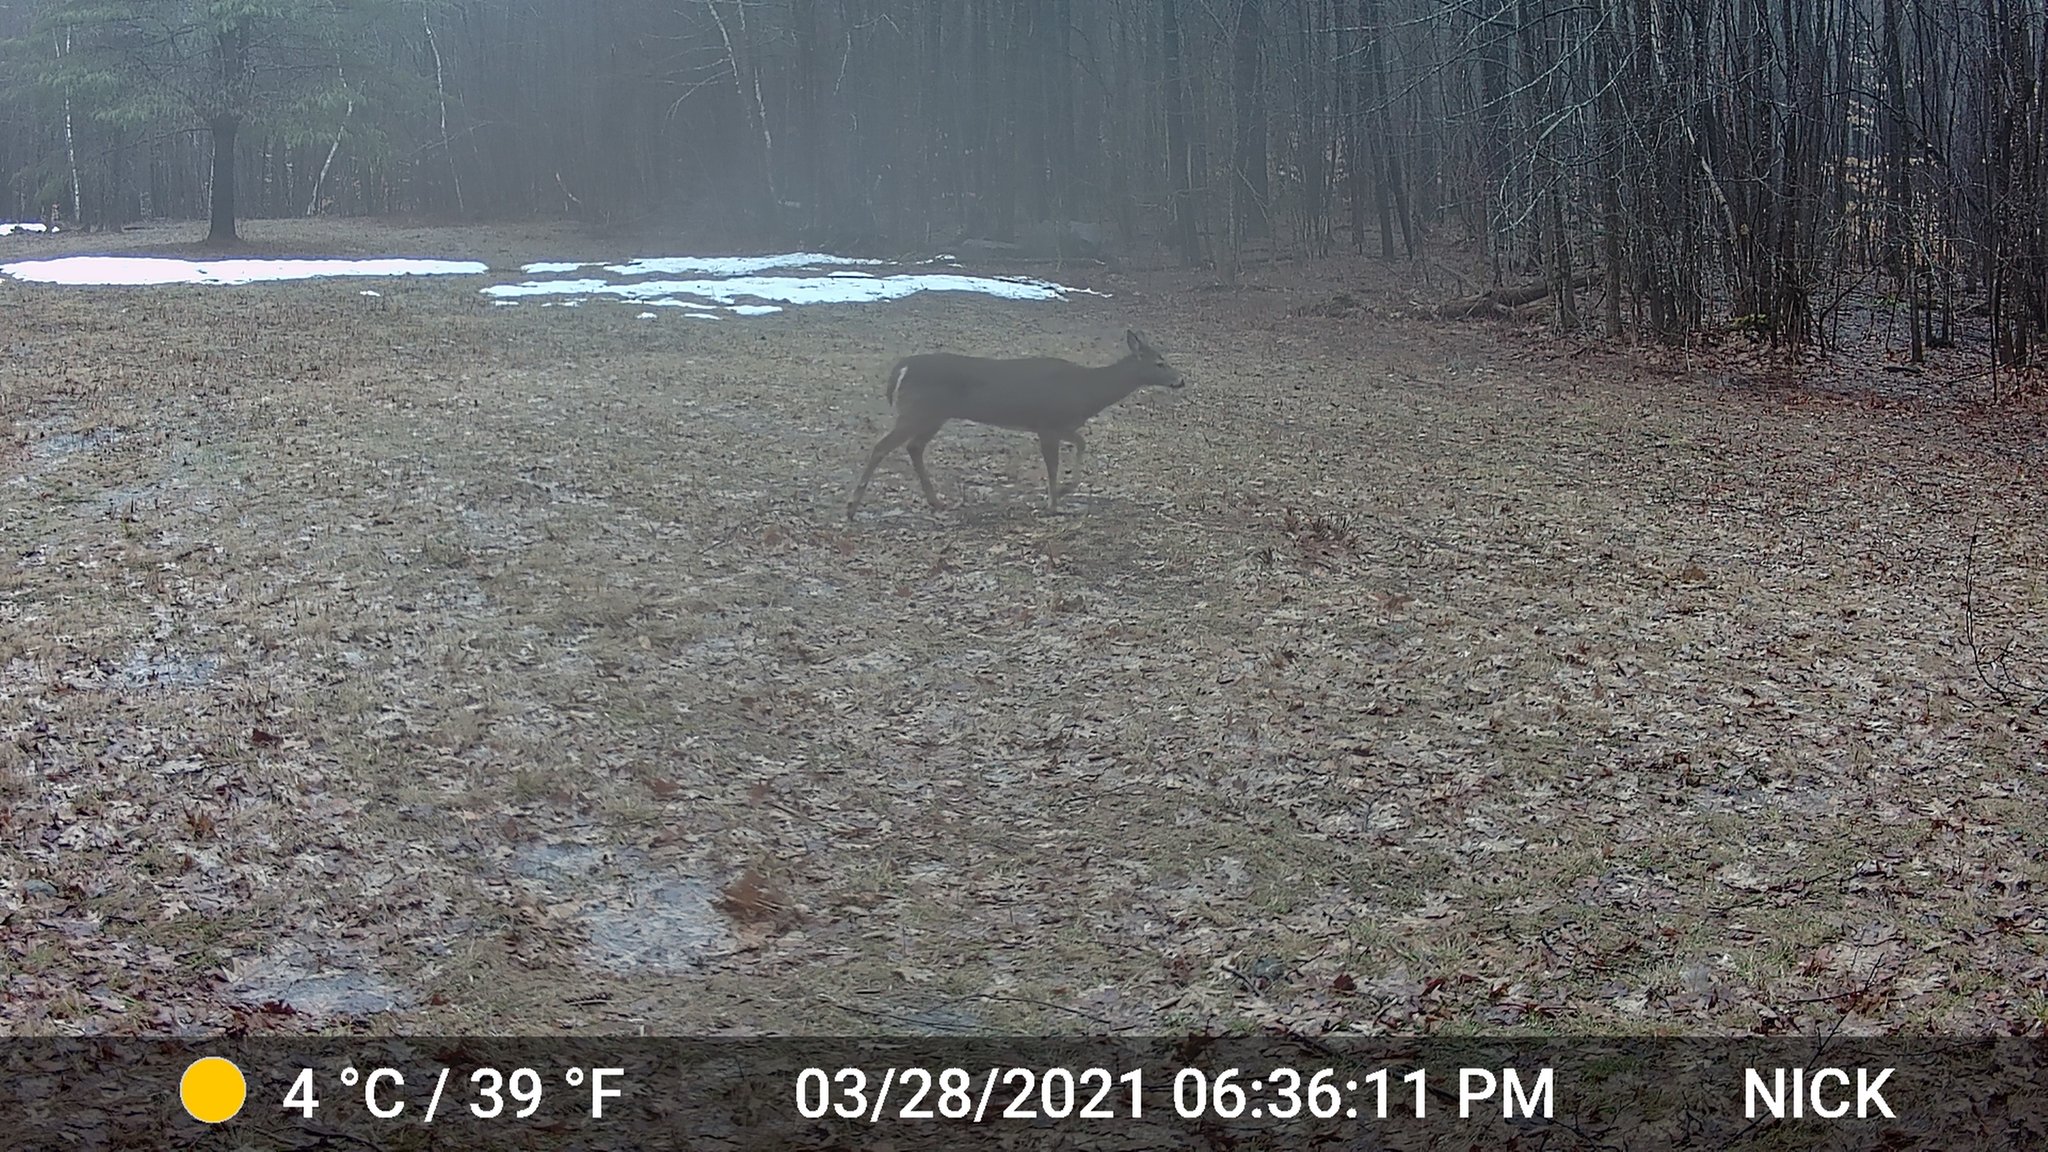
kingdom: Animalia
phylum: Chordata
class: Mammalia
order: Artiodactyla
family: Cervidae
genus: Odocoileus
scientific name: Odocoileus virginianus
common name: White-tailed deer
